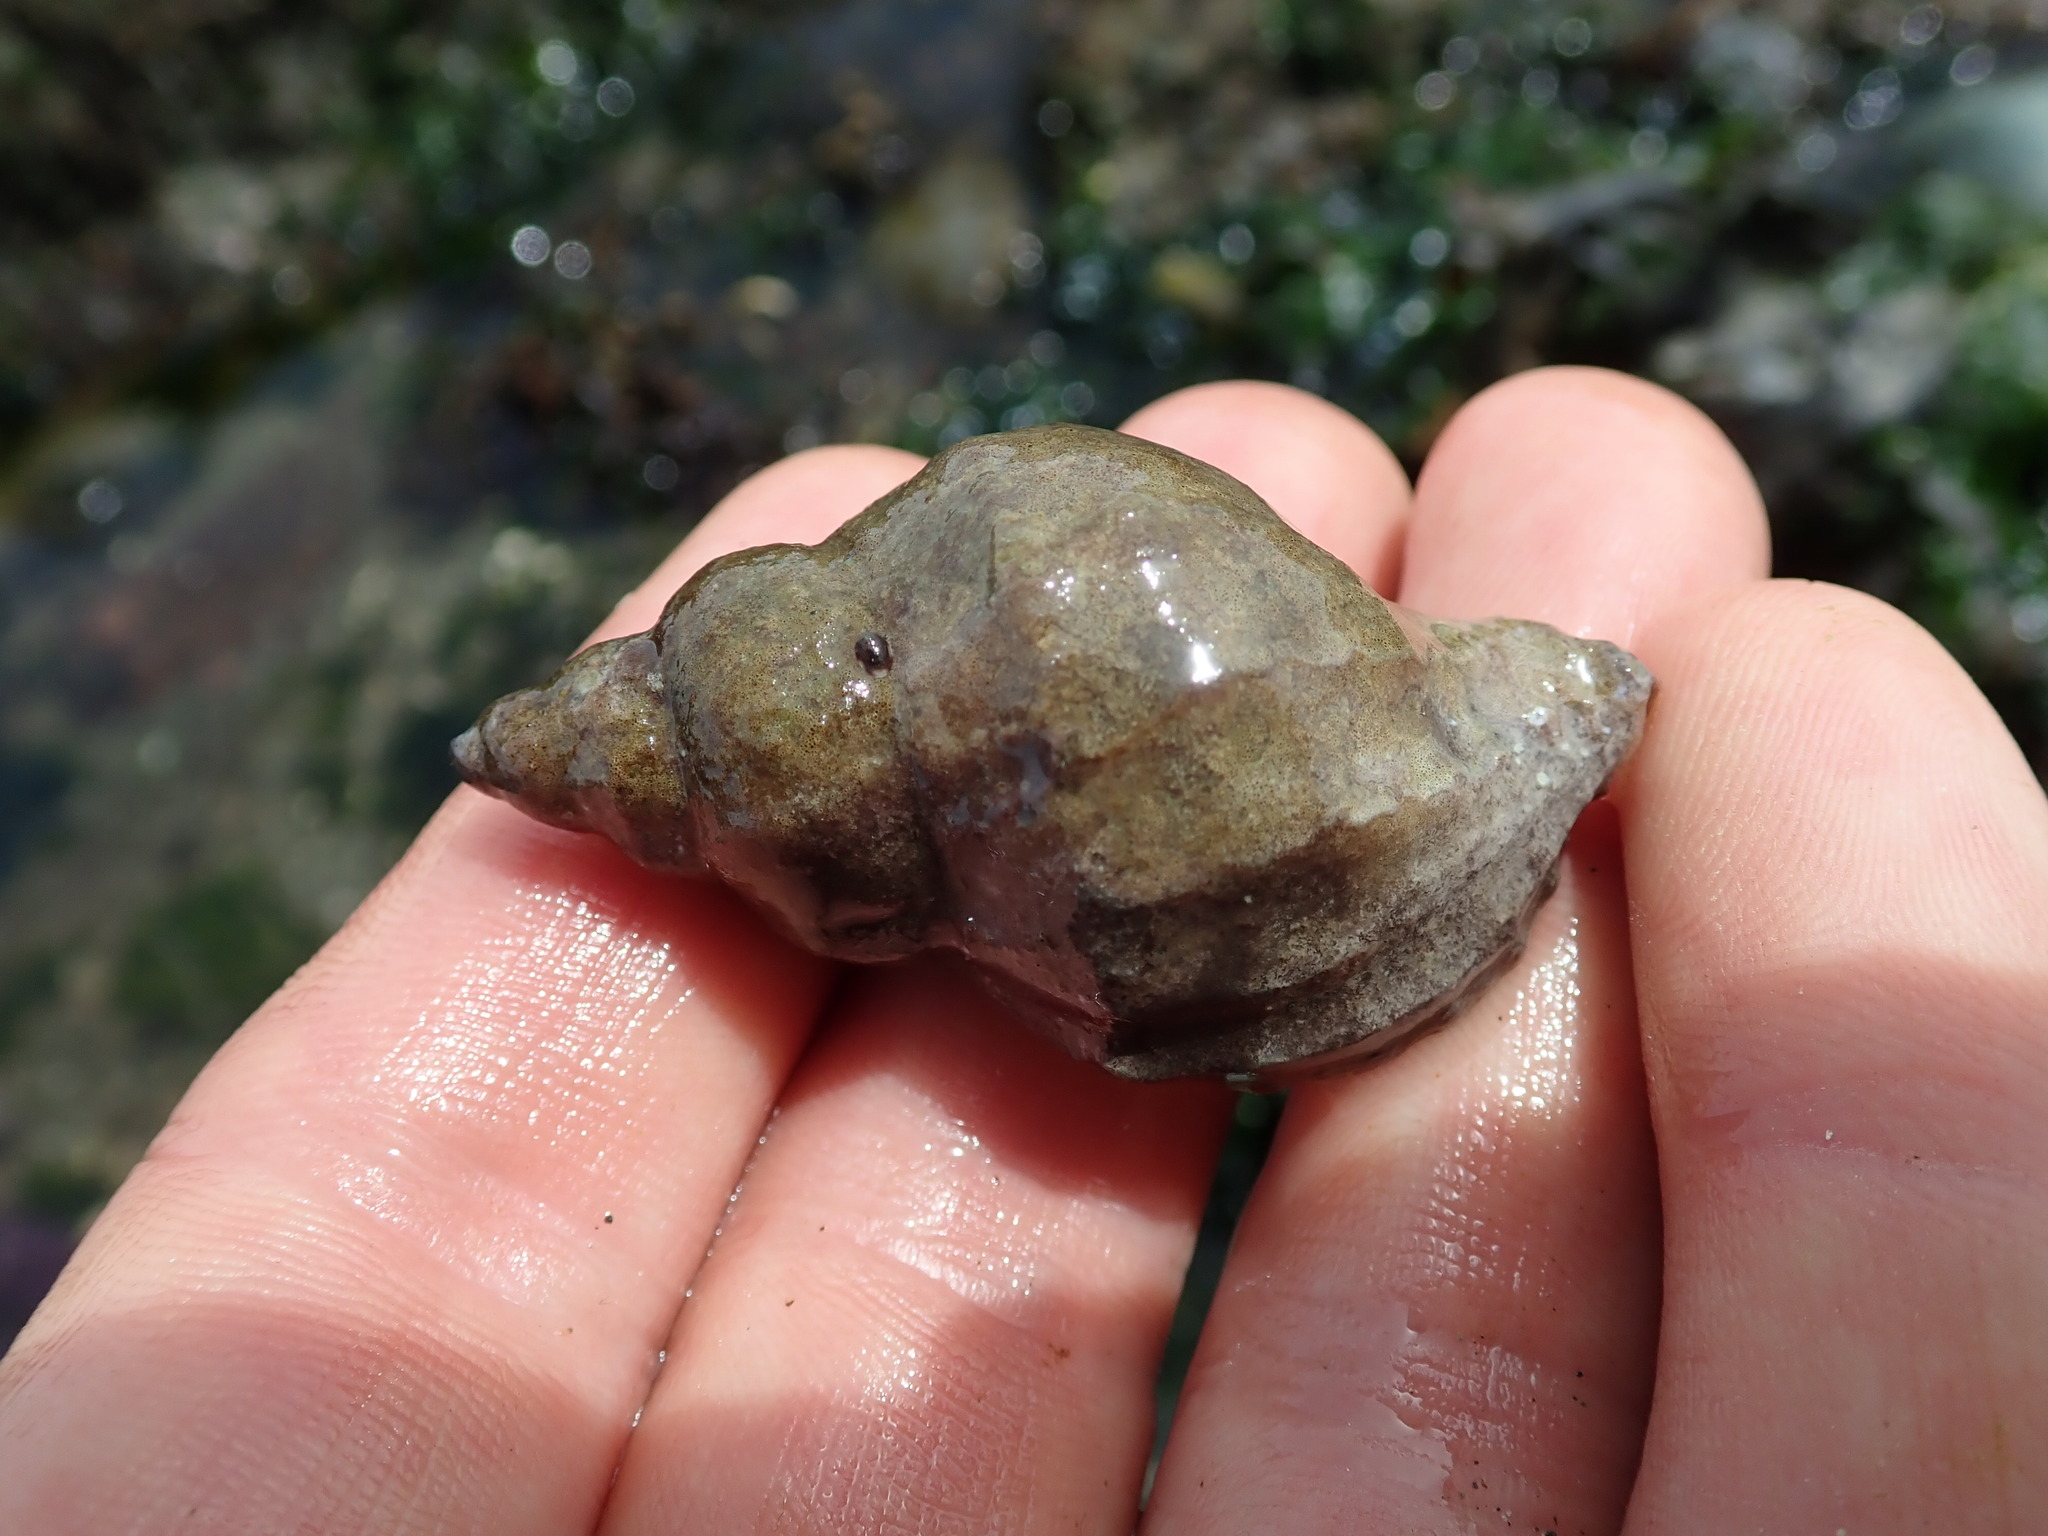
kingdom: Animalia
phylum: Mollusca
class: Gastropoda
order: Neogastropoda
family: Muricidae
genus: Nucella
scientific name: Nucella lamellosa
